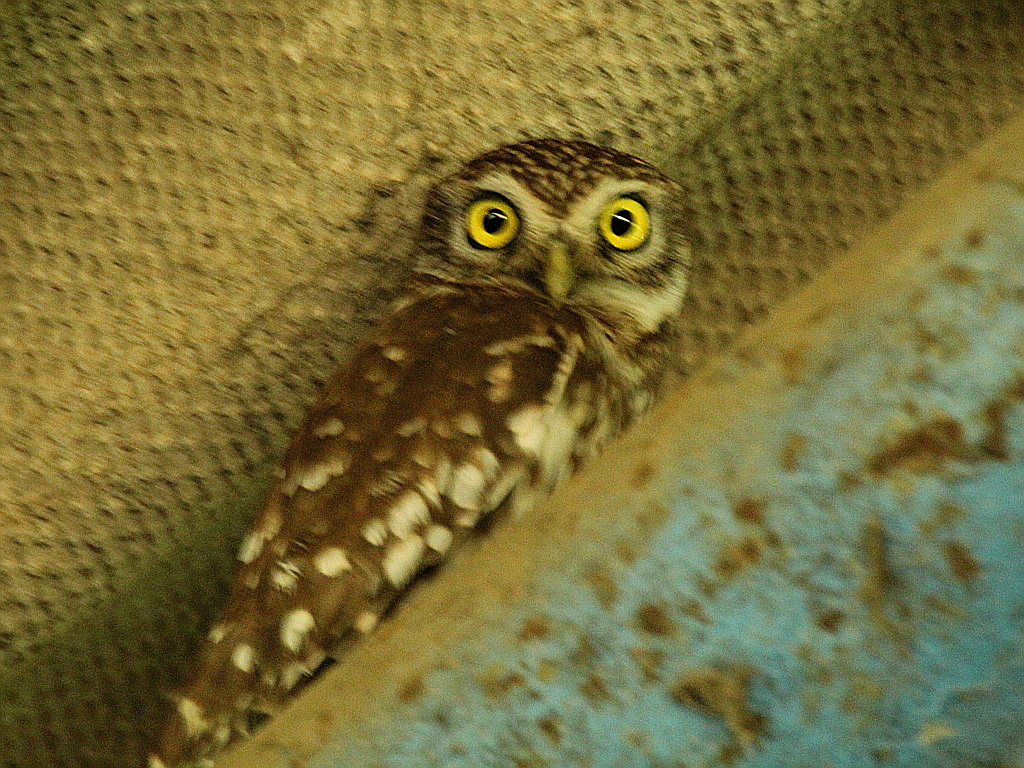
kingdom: Animalia
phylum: Chordata
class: Aves
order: Strigiformes
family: Strigidae
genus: Athene
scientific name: Athene noctua
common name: Little owl
